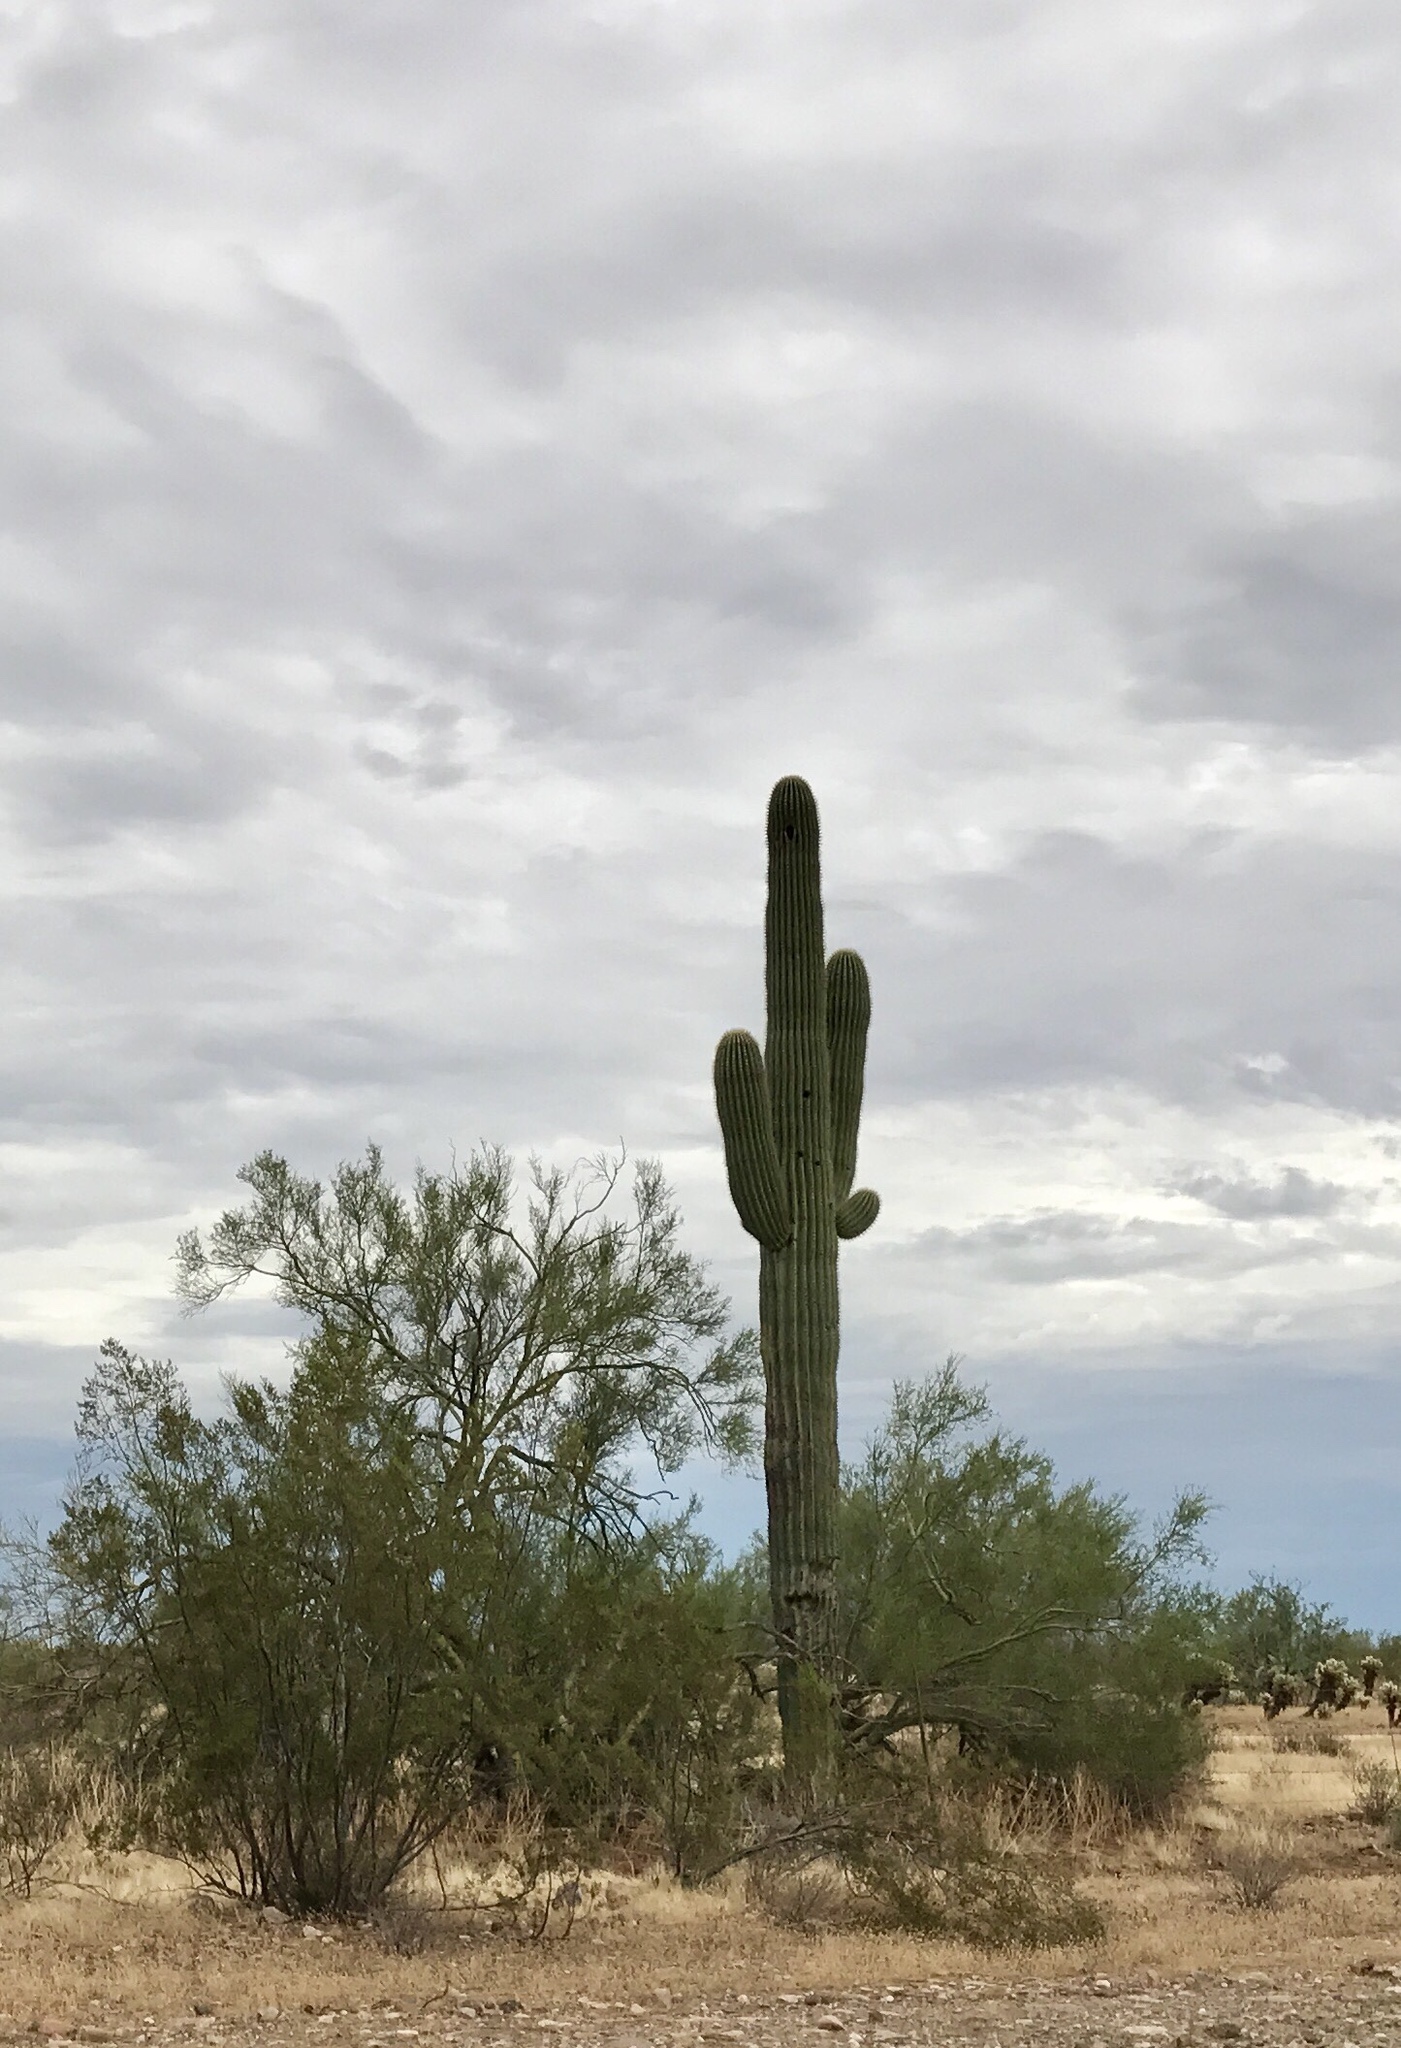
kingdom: Plantae
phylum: Tracheophyta
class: Magnoliopsida
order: Caryophyllales
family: Cactaceae
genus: Carnegiea
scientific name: Carnegiea gigantea
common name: Saguaro
